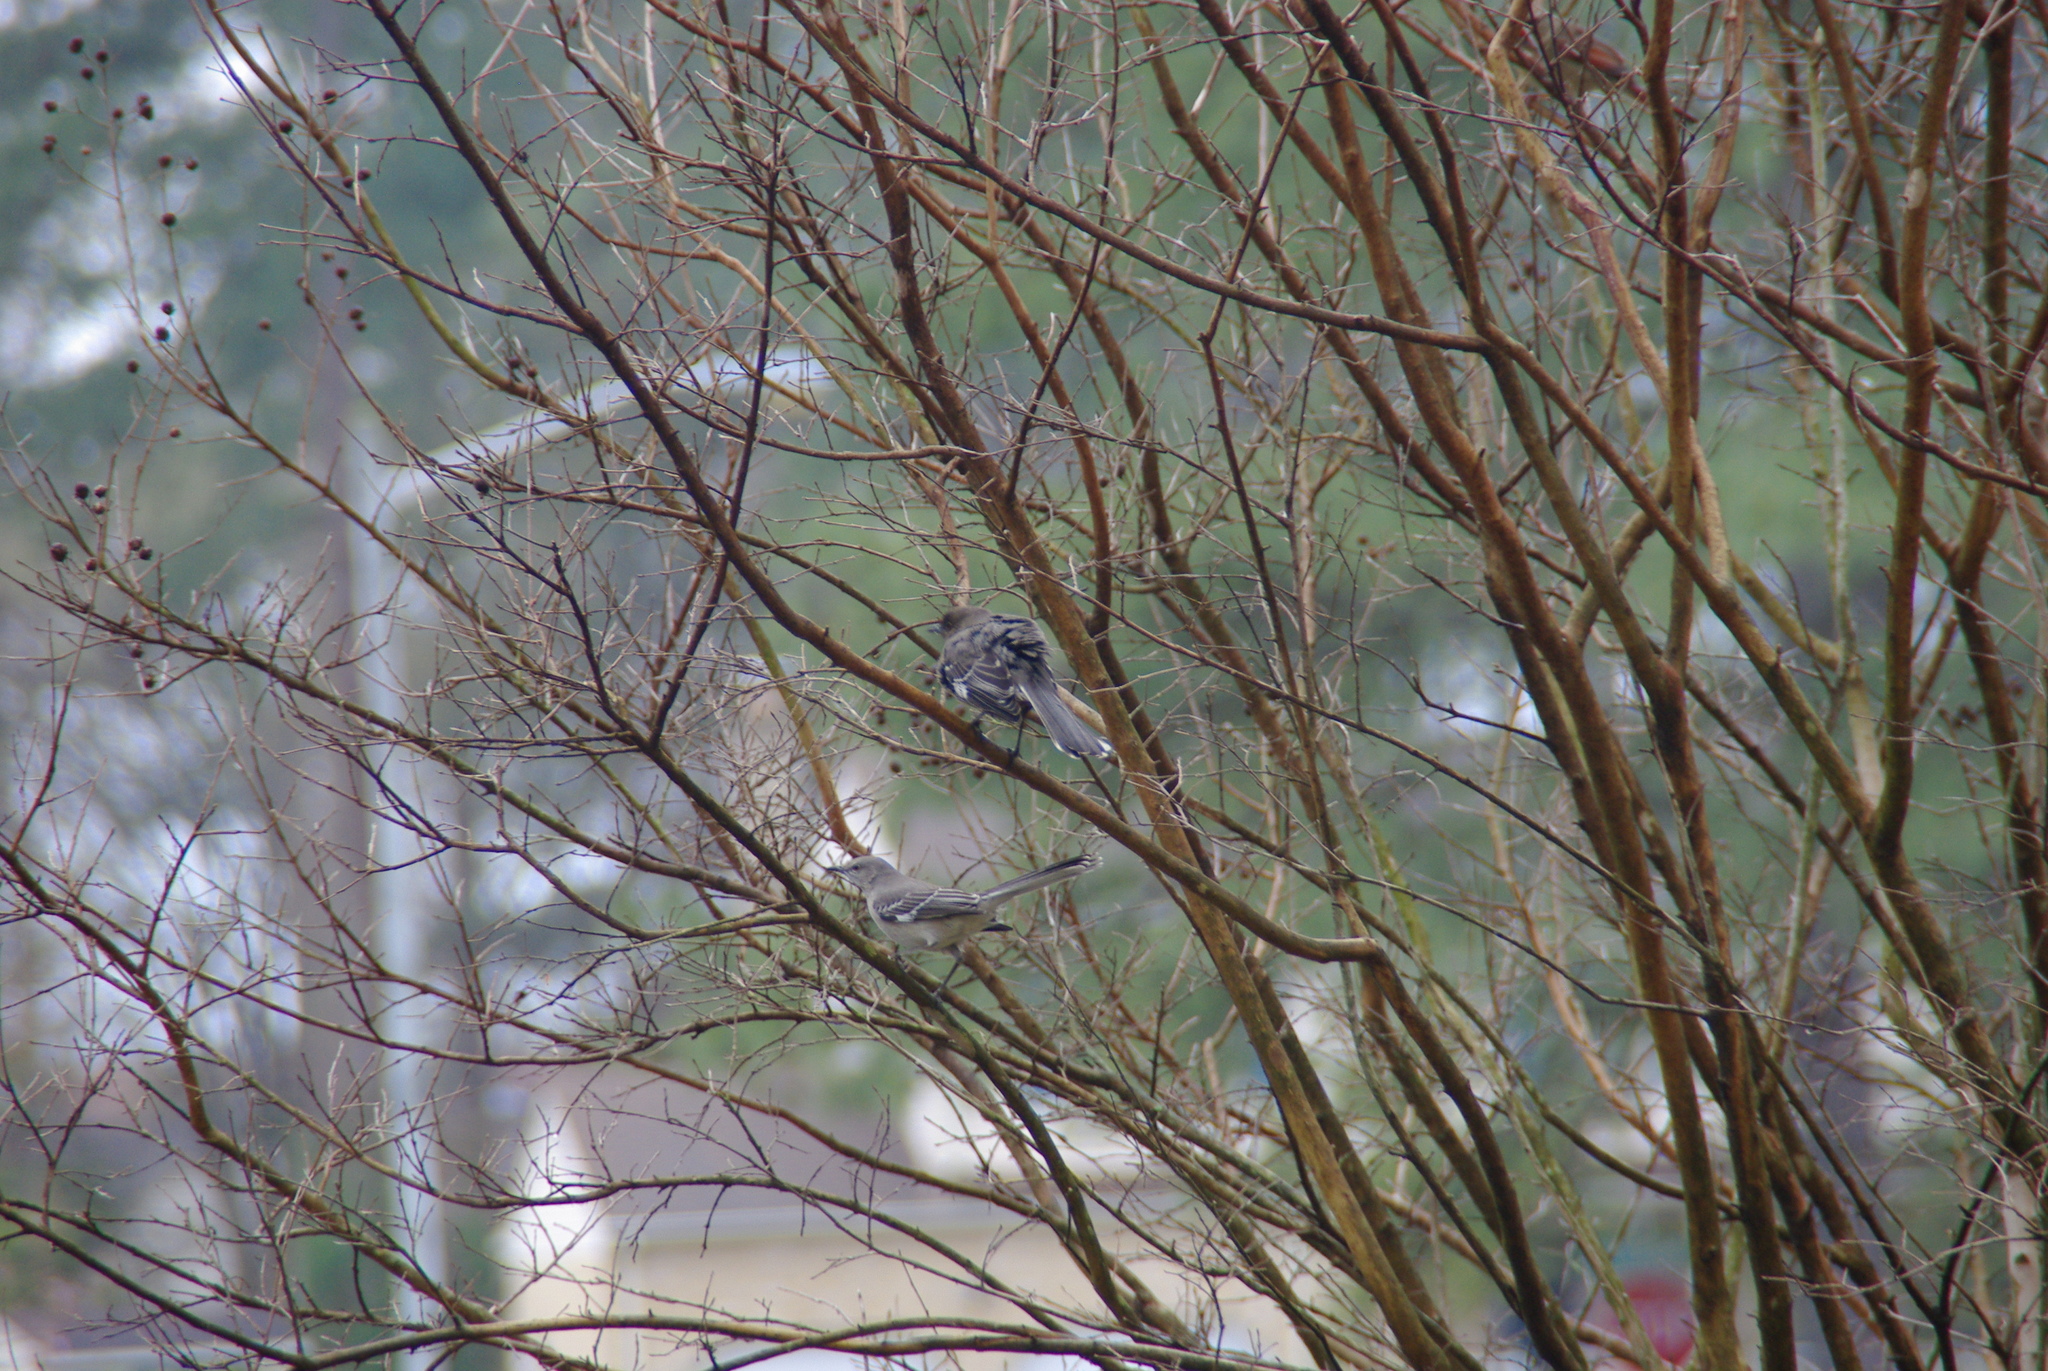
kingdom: Animalia
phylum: Chordata
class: Aves
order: Passeriformes
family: Mimidae
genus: Mimus
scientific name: Mimus polyglottos
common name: Northern mockingbird
